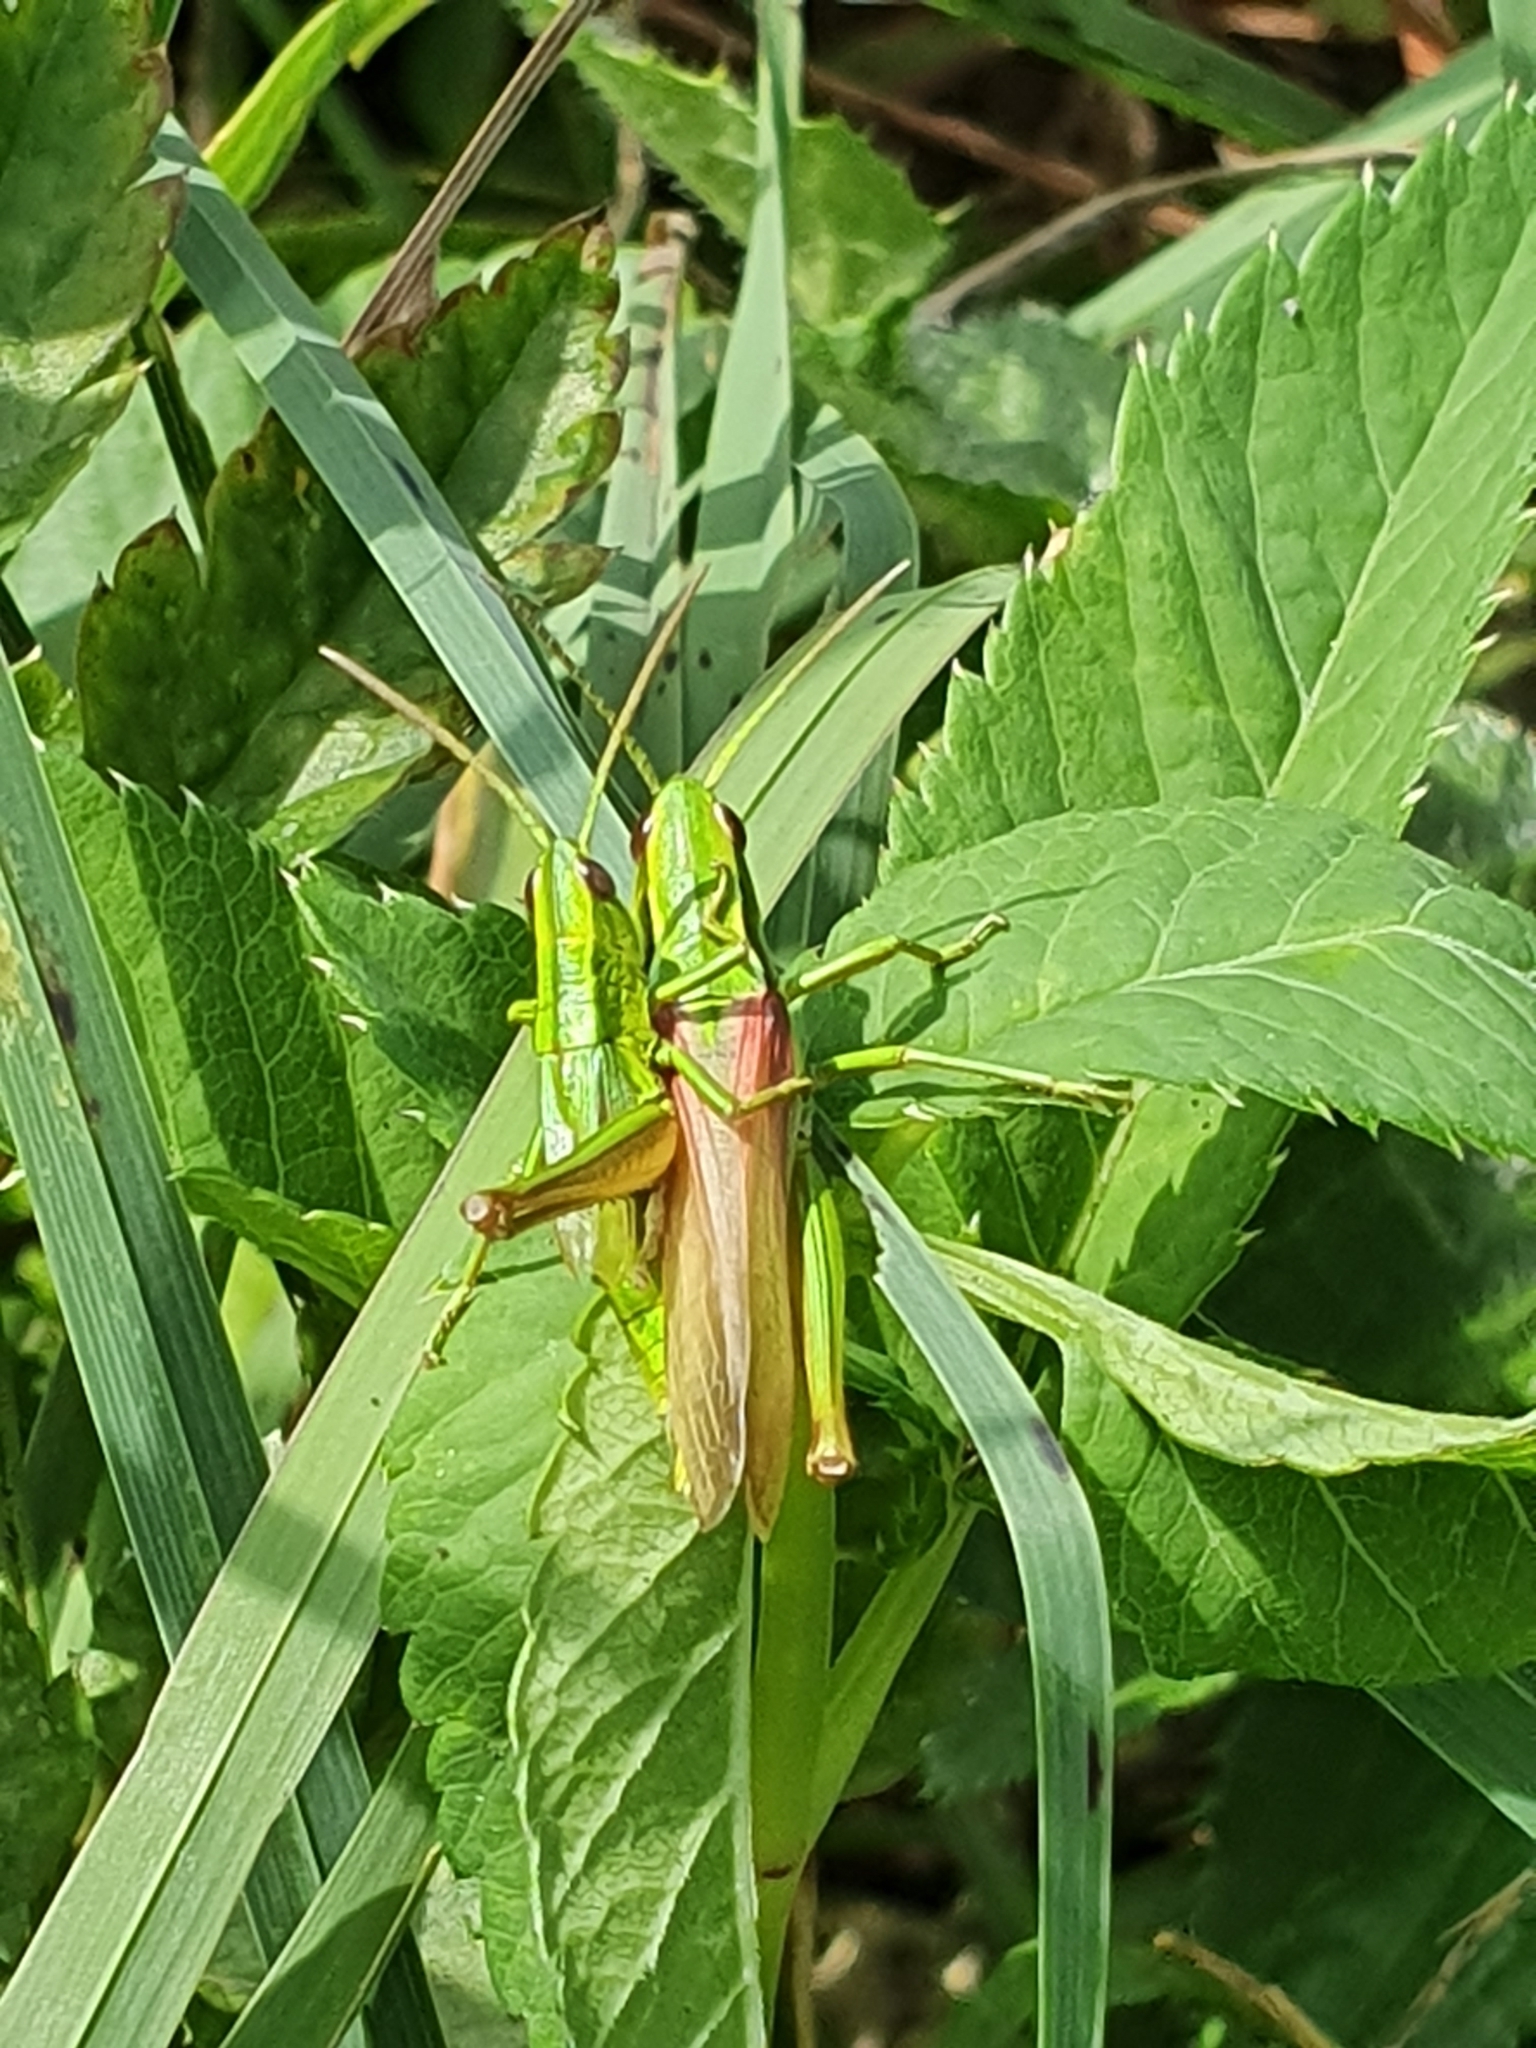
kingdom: Animalia
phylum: Arthropoda
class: Insecta
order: Orthoptera
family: Acrididae
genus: Euthystira
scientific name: Euthystira brachyptera
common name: Small gold grasshopper
